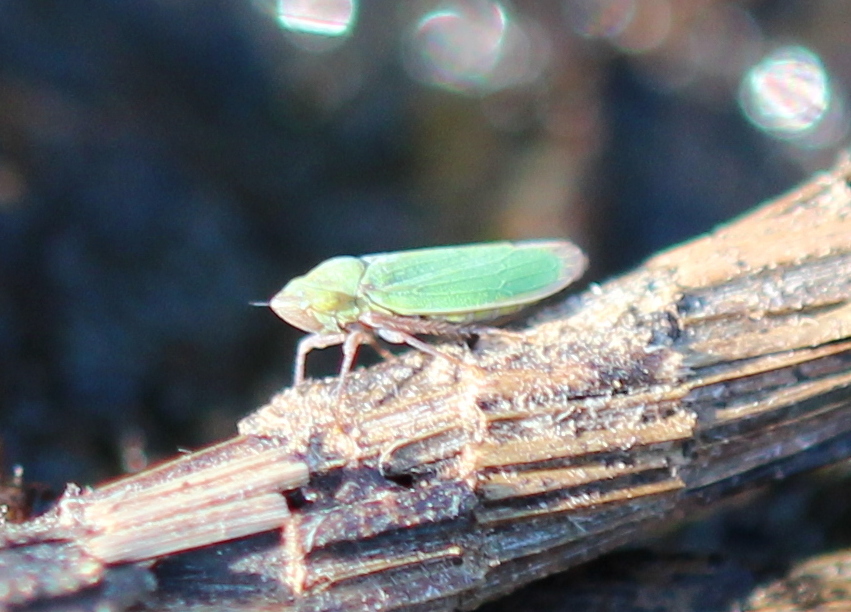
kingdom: Animalia
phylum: Arthropoda
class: Insecta
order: Hemiptera
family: Cicadellidae
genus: Helochara
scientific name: Helochara communis
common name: Bog leafhopper
